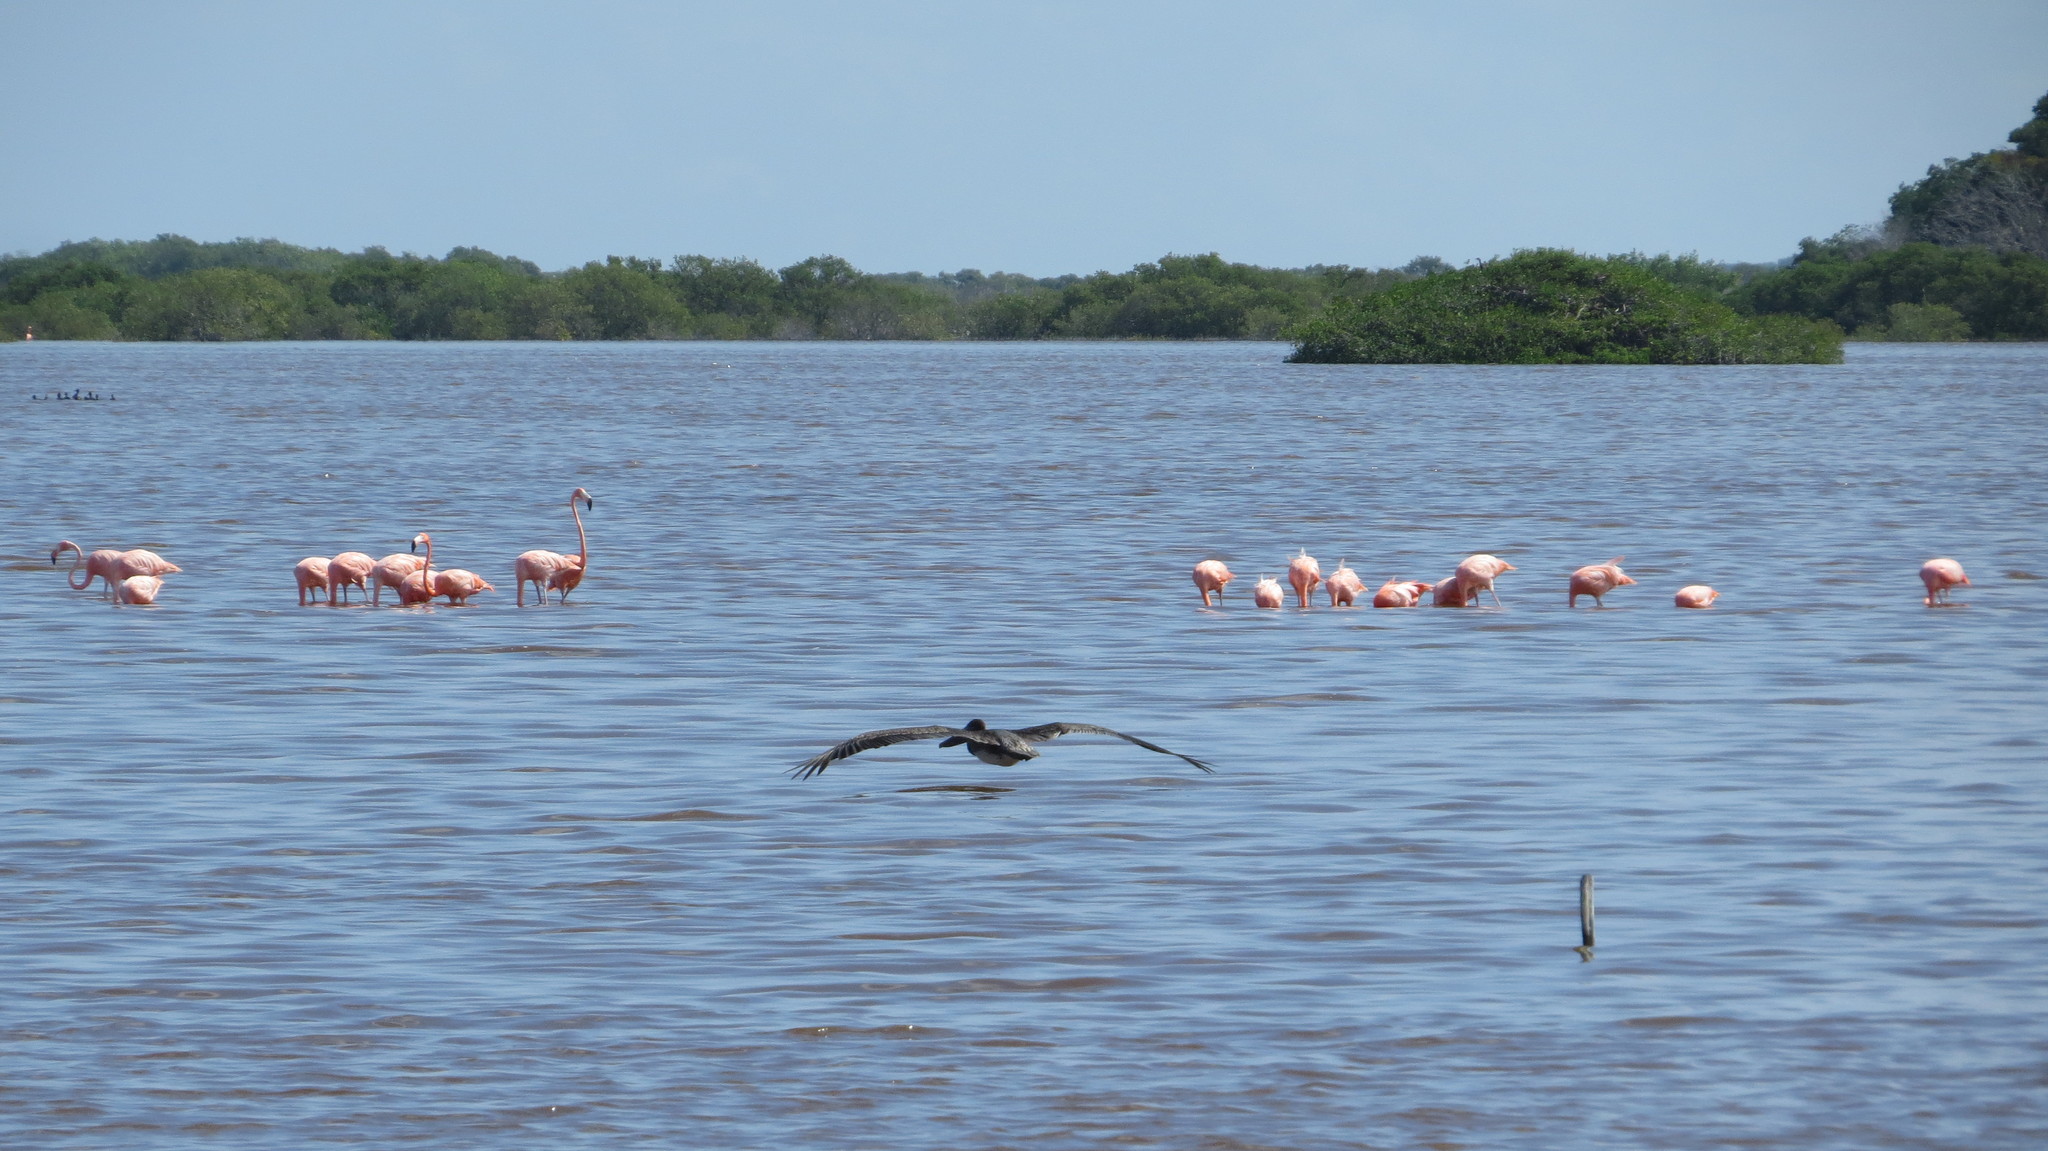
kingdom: Animalia
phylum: Chordata
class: Aves
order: Pelecaniformes
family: Pelecanidae
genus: Pelecanus
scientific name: Pelecanus occidentalis
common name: Brown pelican
